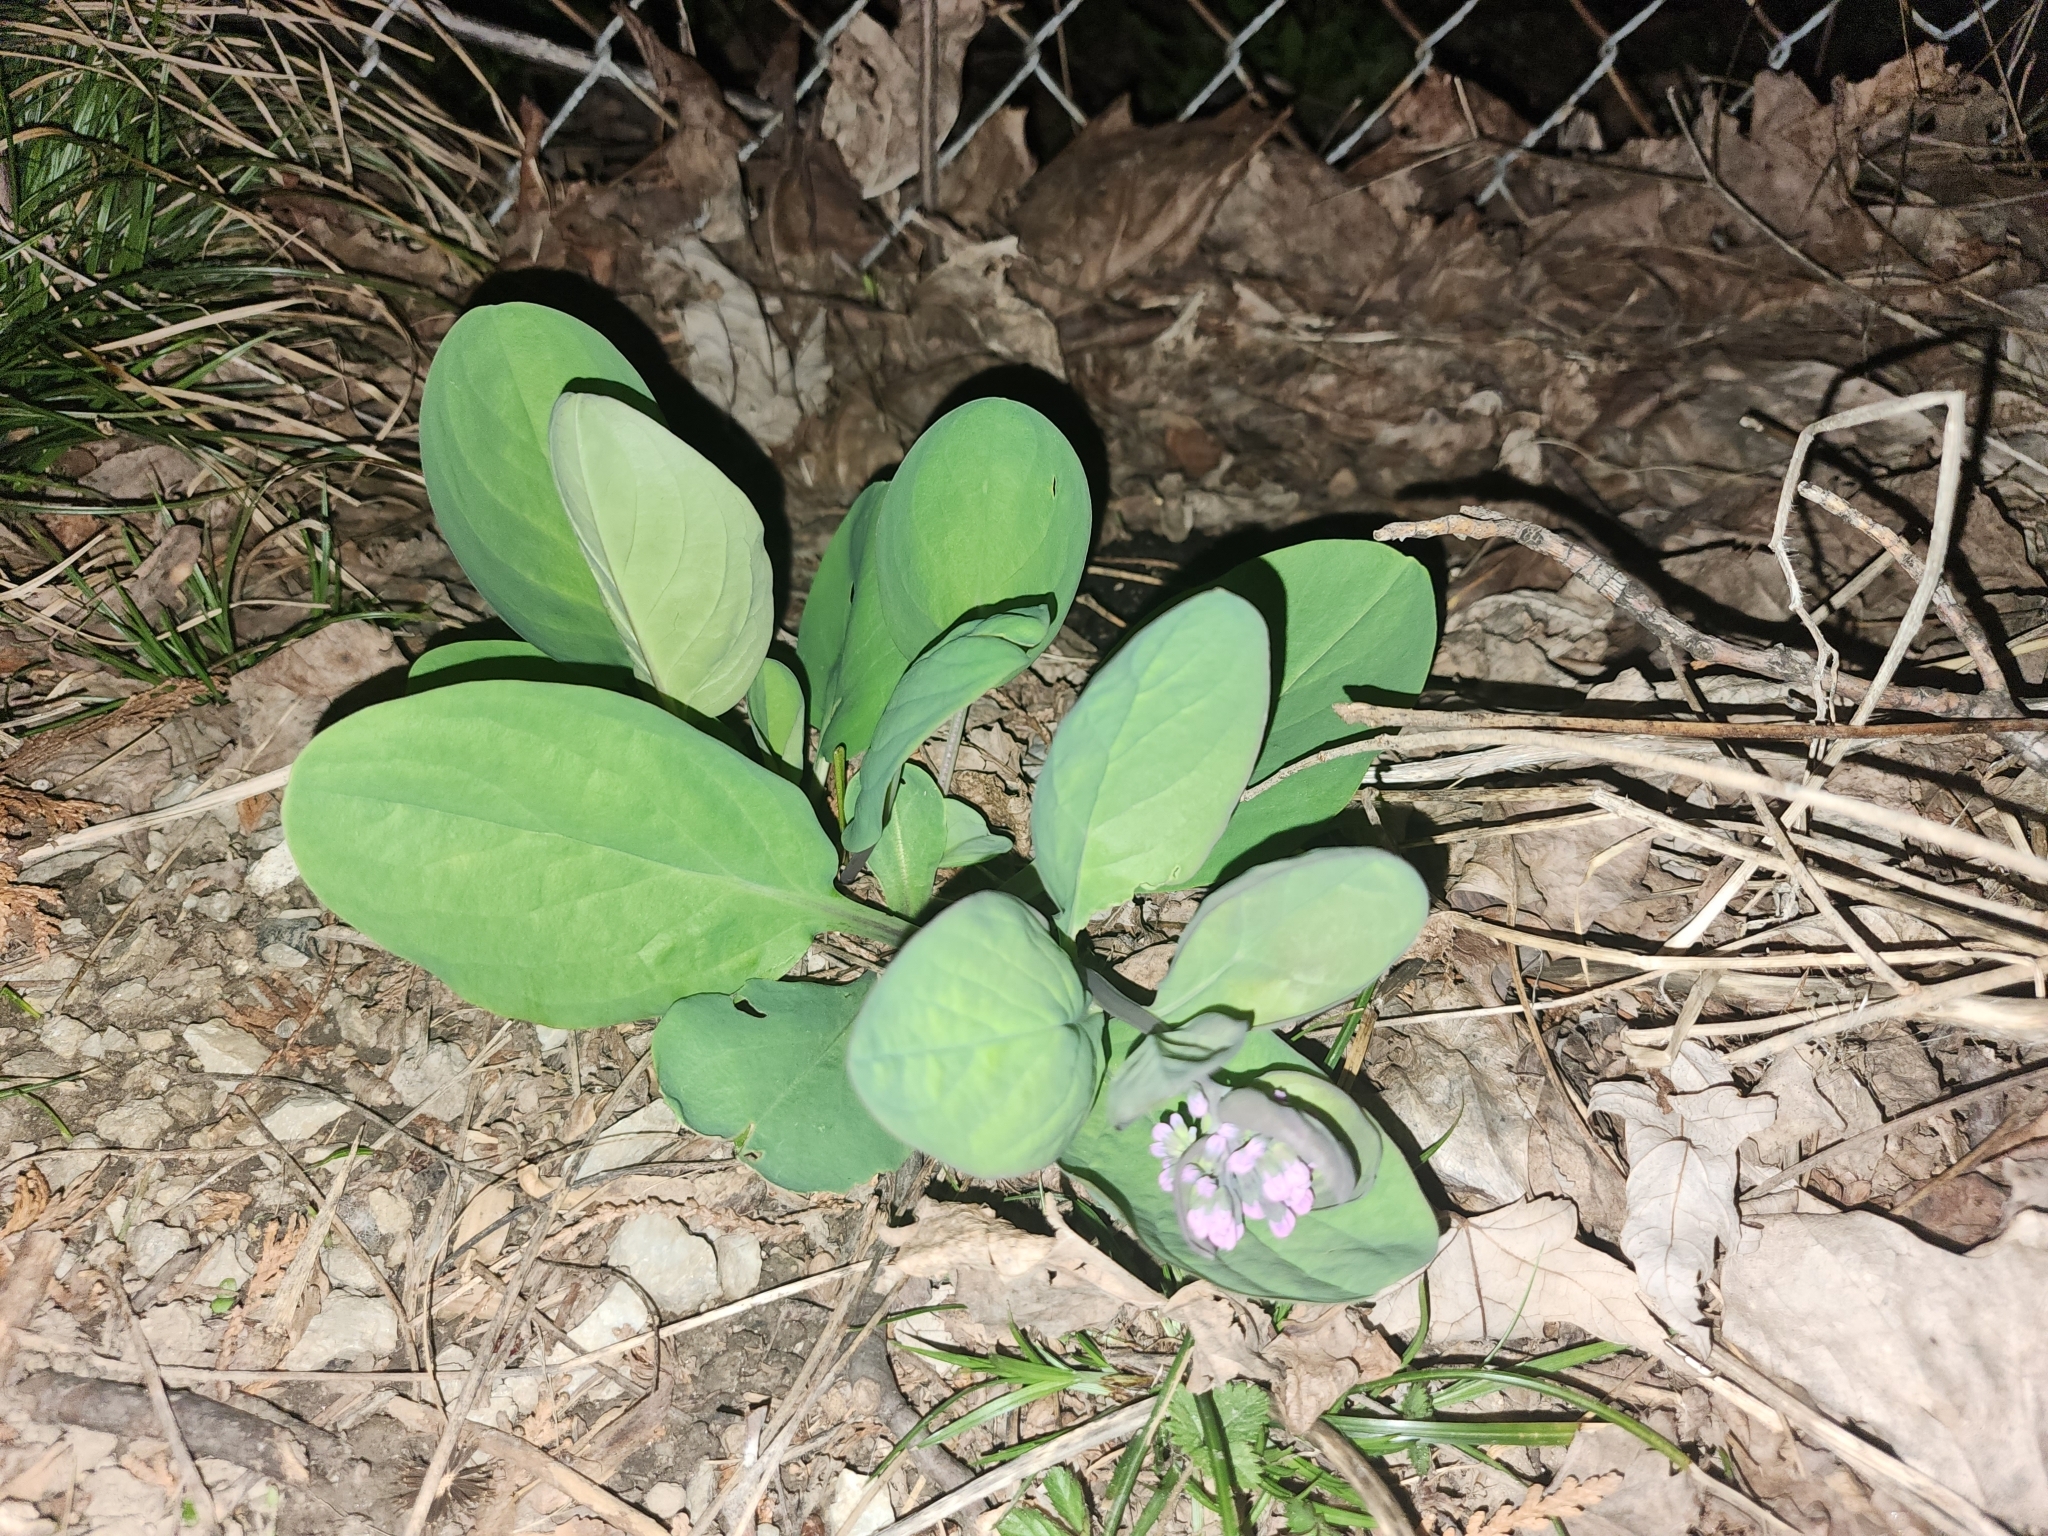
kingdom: Plantae
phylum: Tracheophyta
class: Magnoliopsida
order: Boraginales
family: Boraginaceae
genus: Mertensia
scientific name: Mertensia virginica
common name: Virginia bluebells
